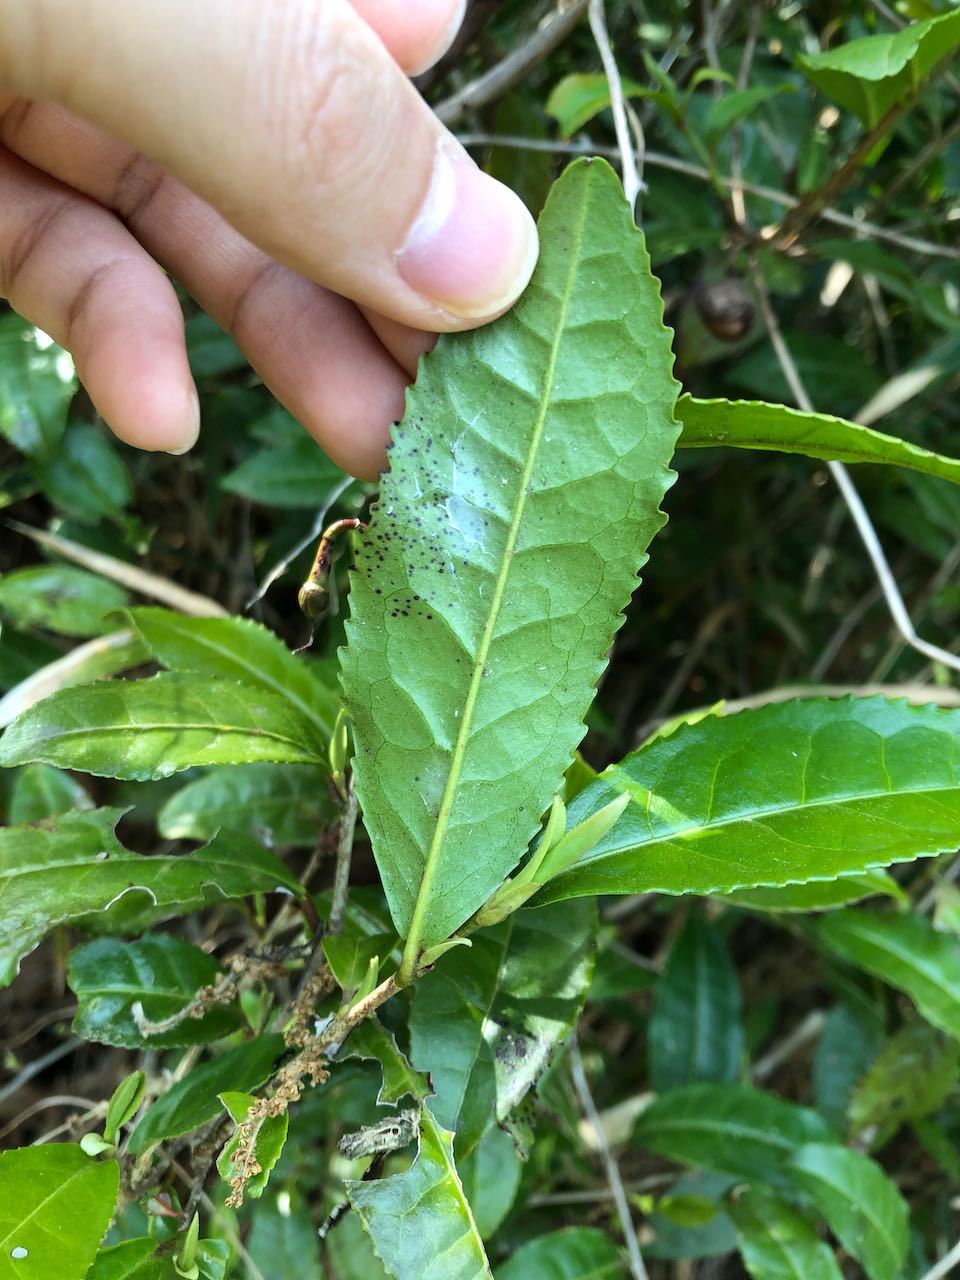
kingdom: Plantae
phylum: Tracheophyta
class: Magnoliopsida
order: Ericales
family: Theaceae
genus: Camellia
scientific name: Camellia sinensis
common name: Tea
